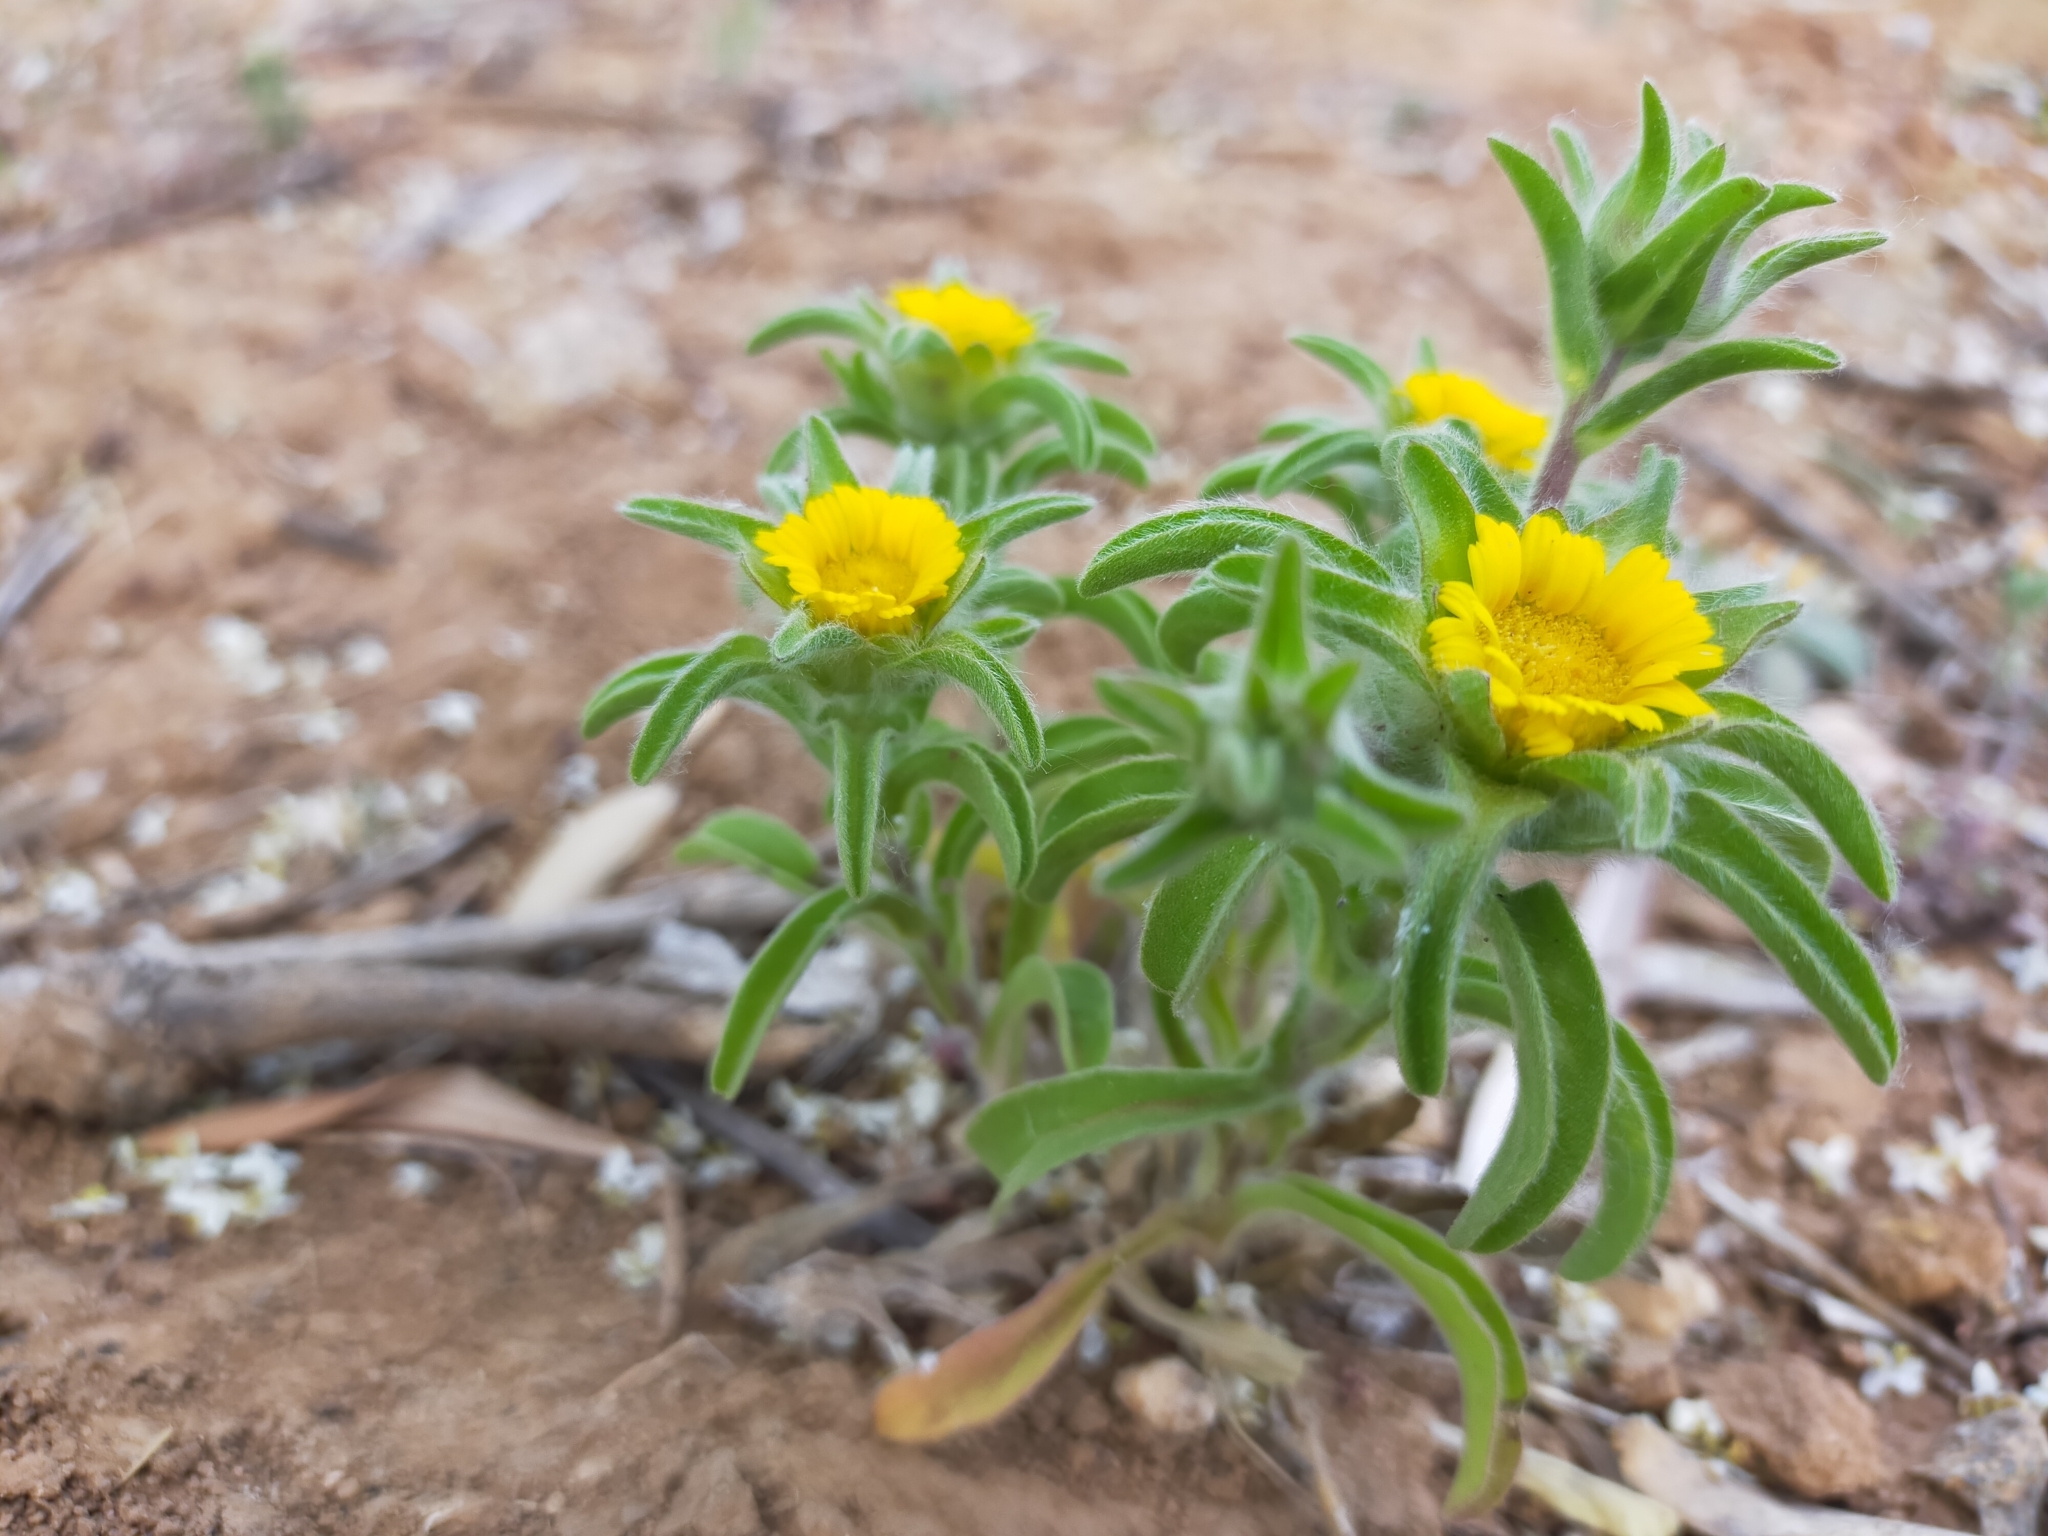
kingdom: Plantae
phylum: Tracheophyta
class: Magnoliopsida
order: Asterales
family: Asteraceae
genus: Asteriscus
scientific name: Asteriscus aquaticus
